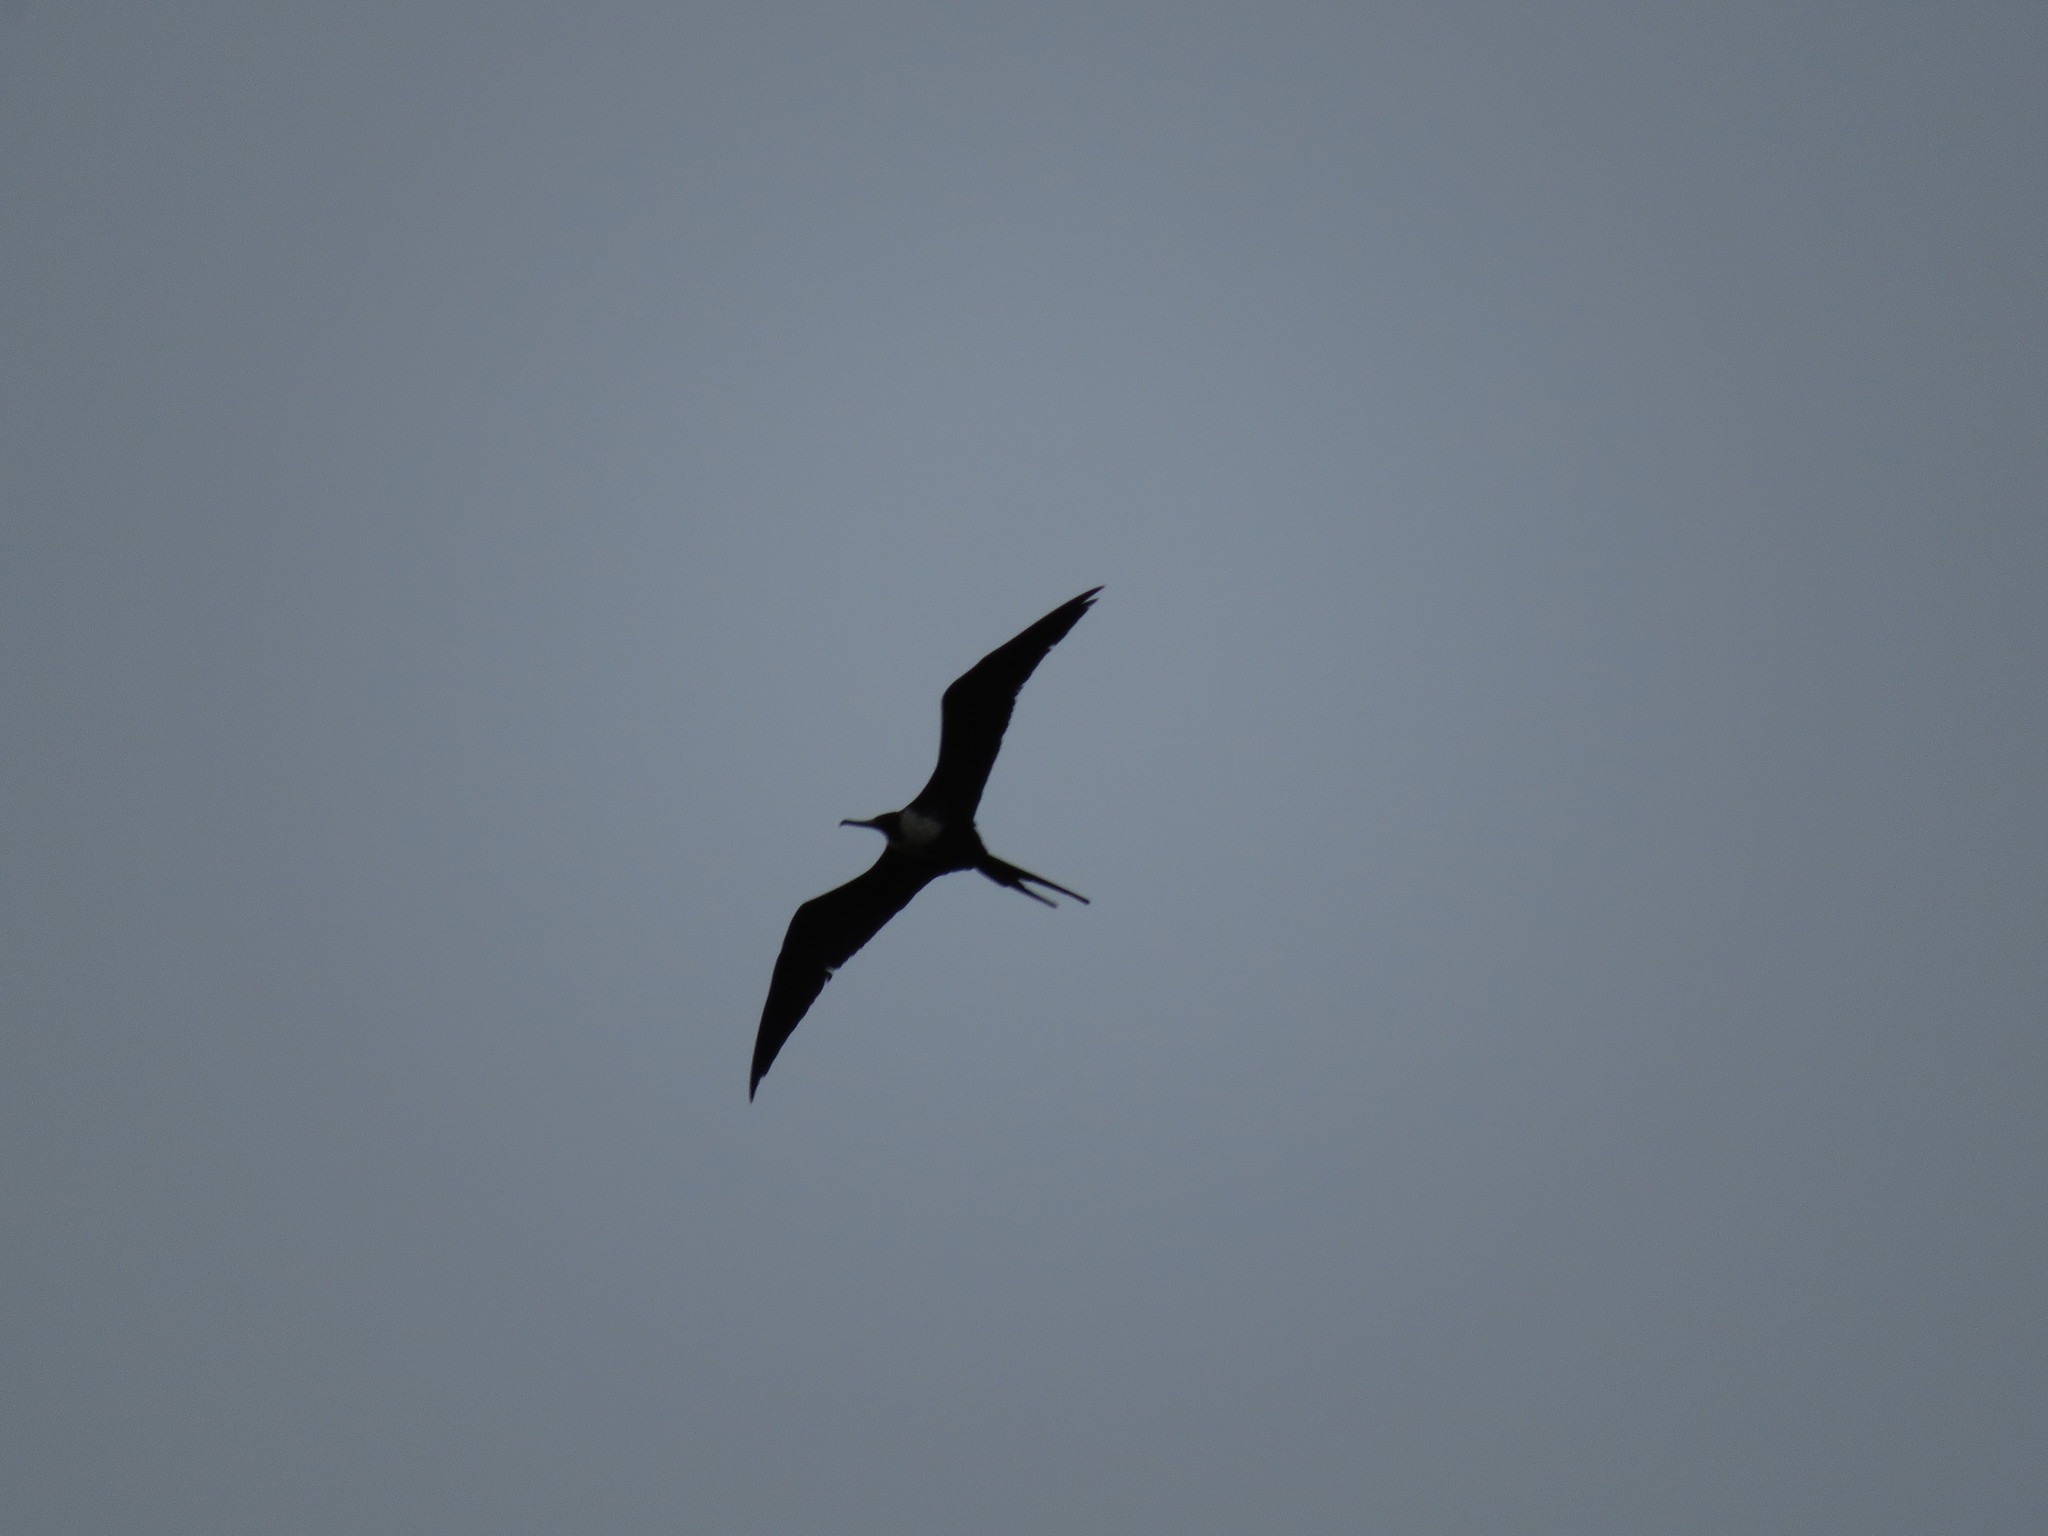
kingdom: Animalia
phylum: Chordata
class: Aves
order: Suliformes
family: Fregatidae
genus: Fregata
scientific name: Fregata magnificens
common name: Magnificent frigatebird
